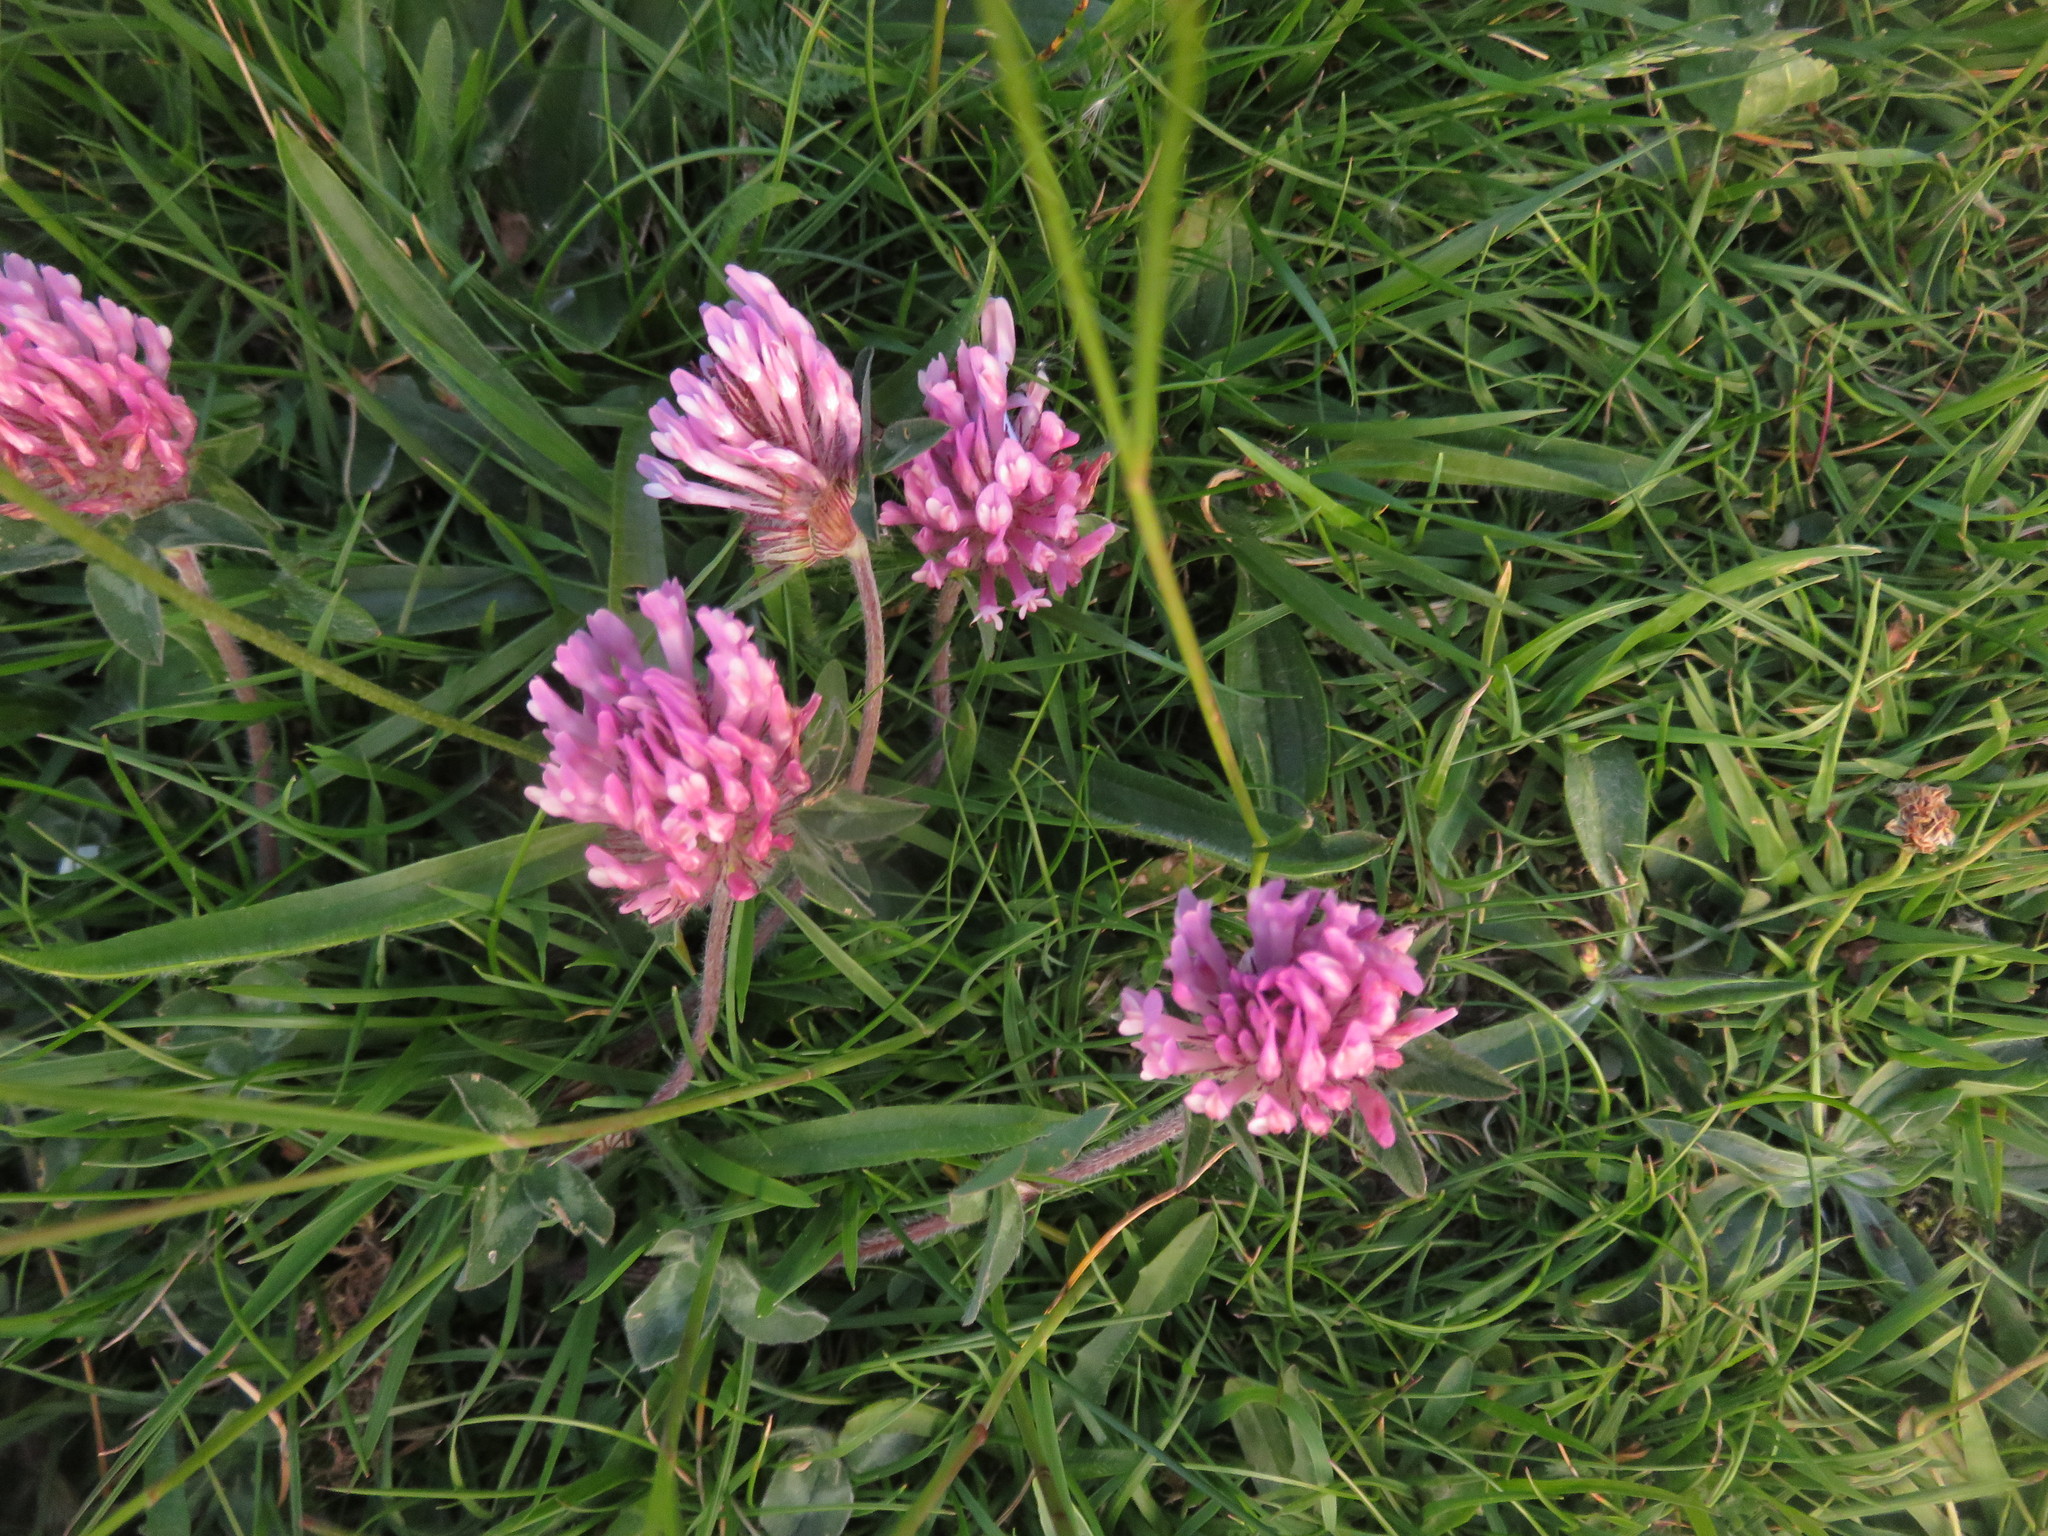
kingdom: Plantae
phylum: Tracheophyta
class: Magnoliopsida
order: Fabales
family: Fabaceae
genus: Trifolium
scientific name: Trifolium pratense
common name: Red clover
